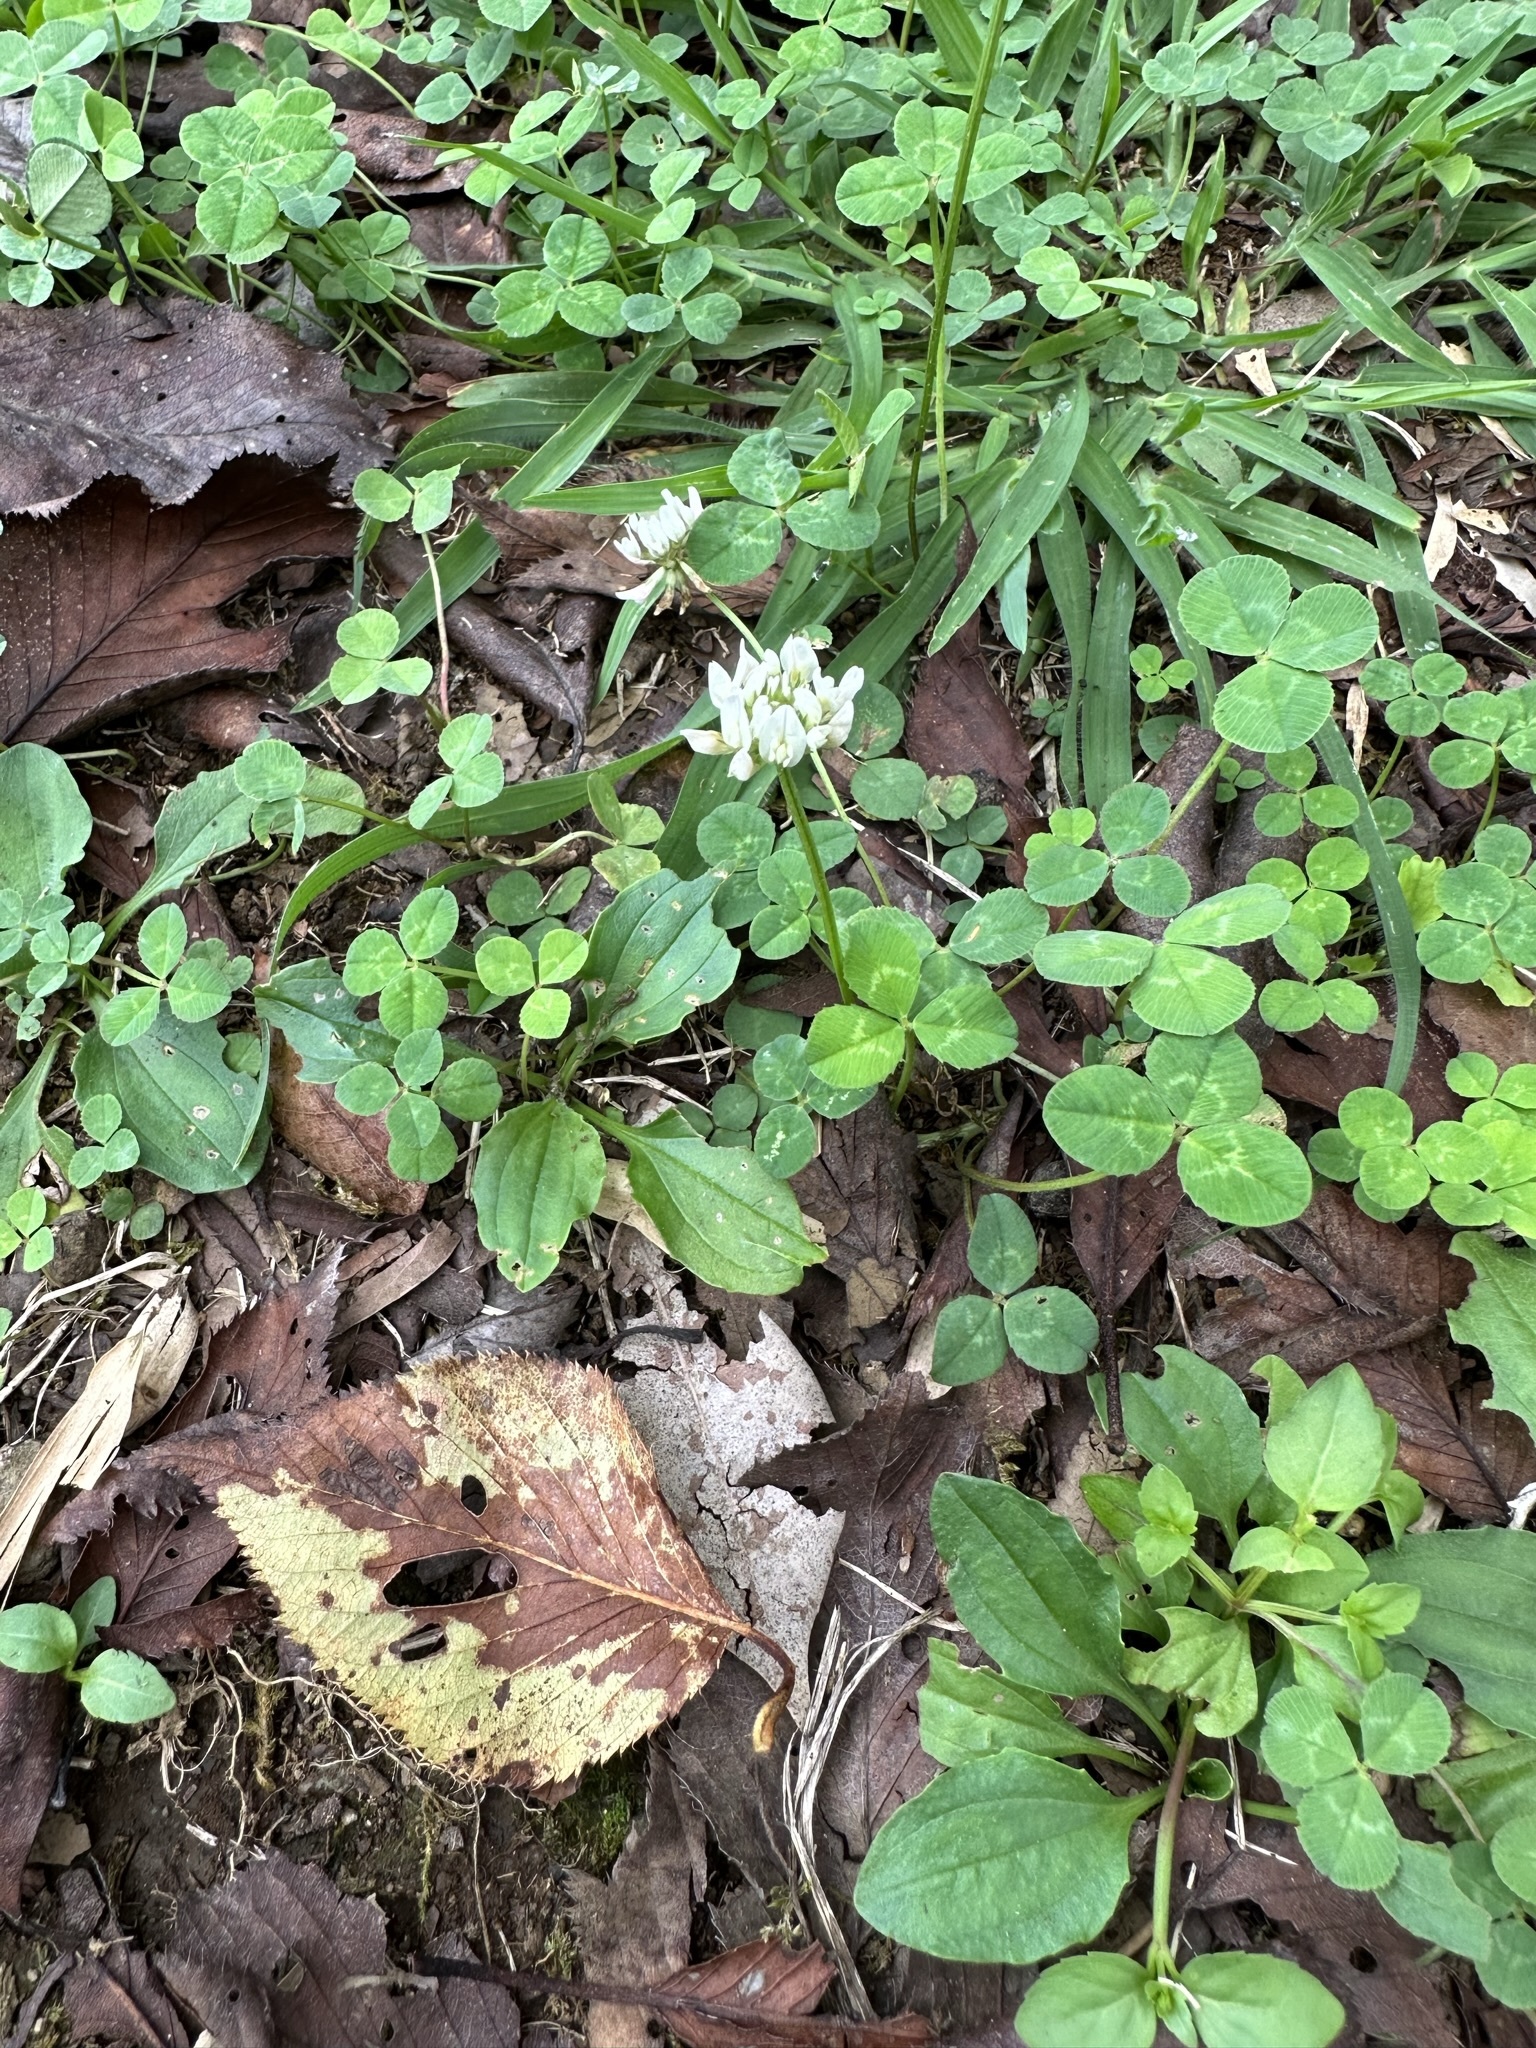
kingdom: Plantae
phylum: Tracheophyta
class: Magnoliopsida
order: Fabales
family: Fabaceae
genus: Trifolium
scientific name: Trifolium repens
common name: White clover
